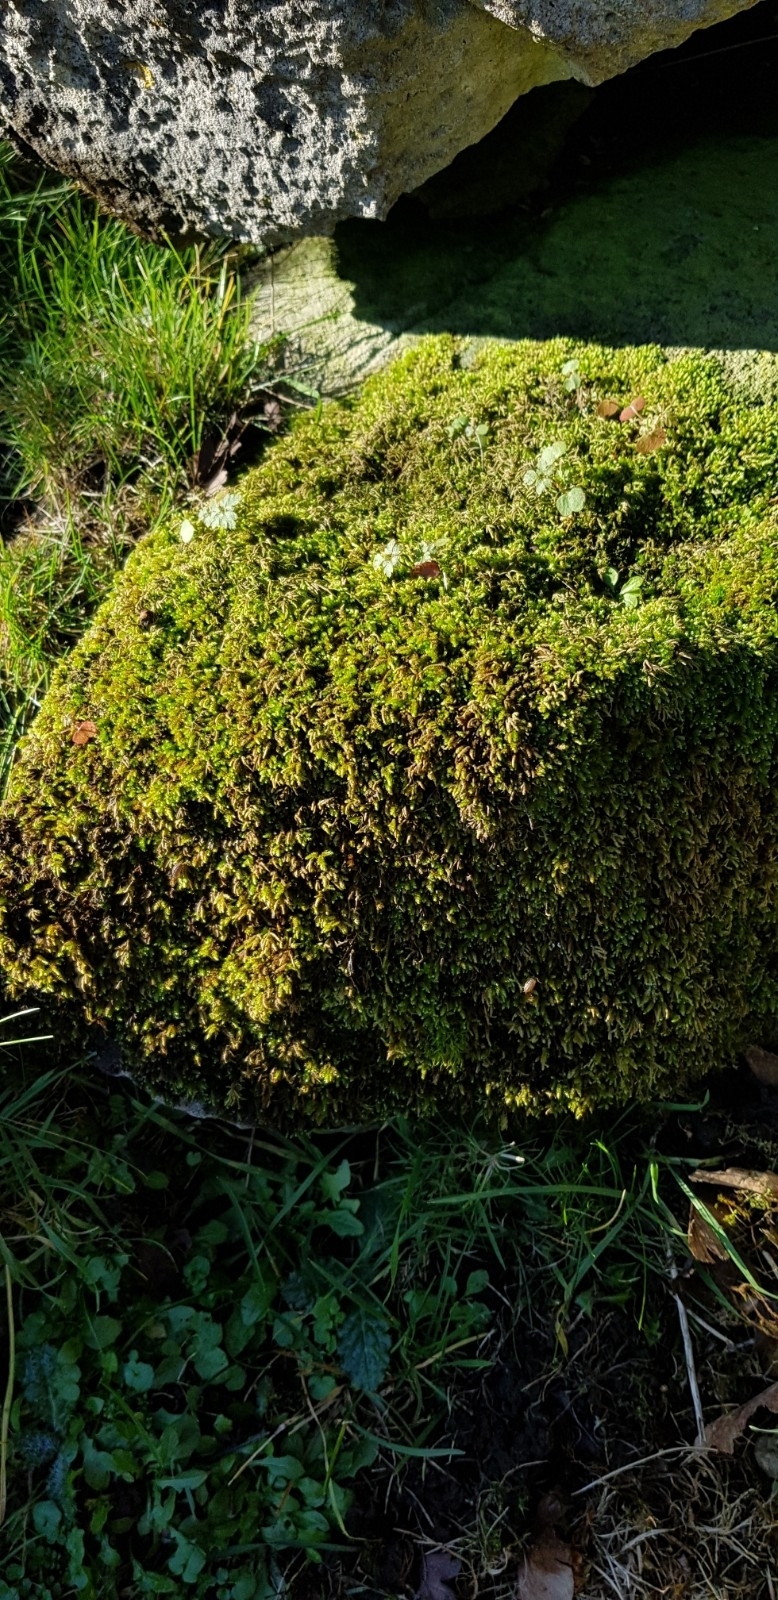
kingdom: Plantae
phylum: Bryophyta
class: Bryopsida
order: Hypnales
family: Lembophyllaceae
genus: Nogopterium
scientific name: Nogopterium gracile
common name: Bird's-foot wing-moss
